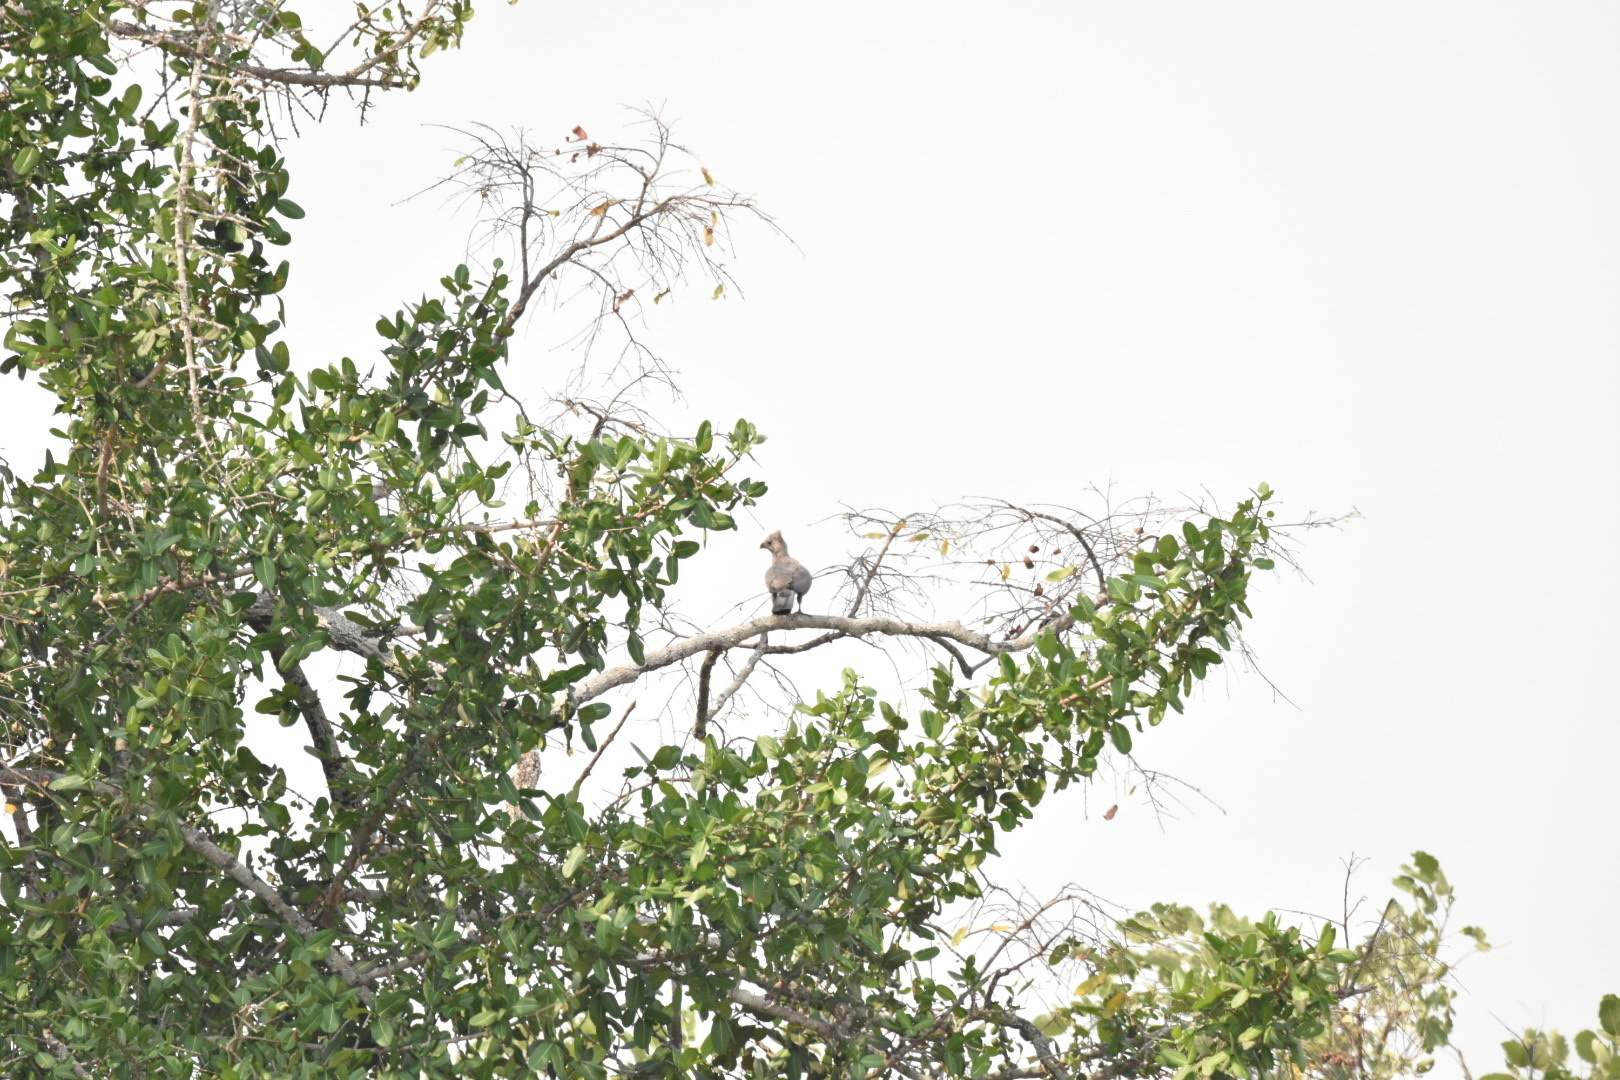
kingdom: Animalia
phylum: Chordata
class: Aves
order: Musophagiformes
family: Musophagidae
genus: Corythaixoides
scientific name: Corythaixoides concolor
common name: Grey go-away-bird
